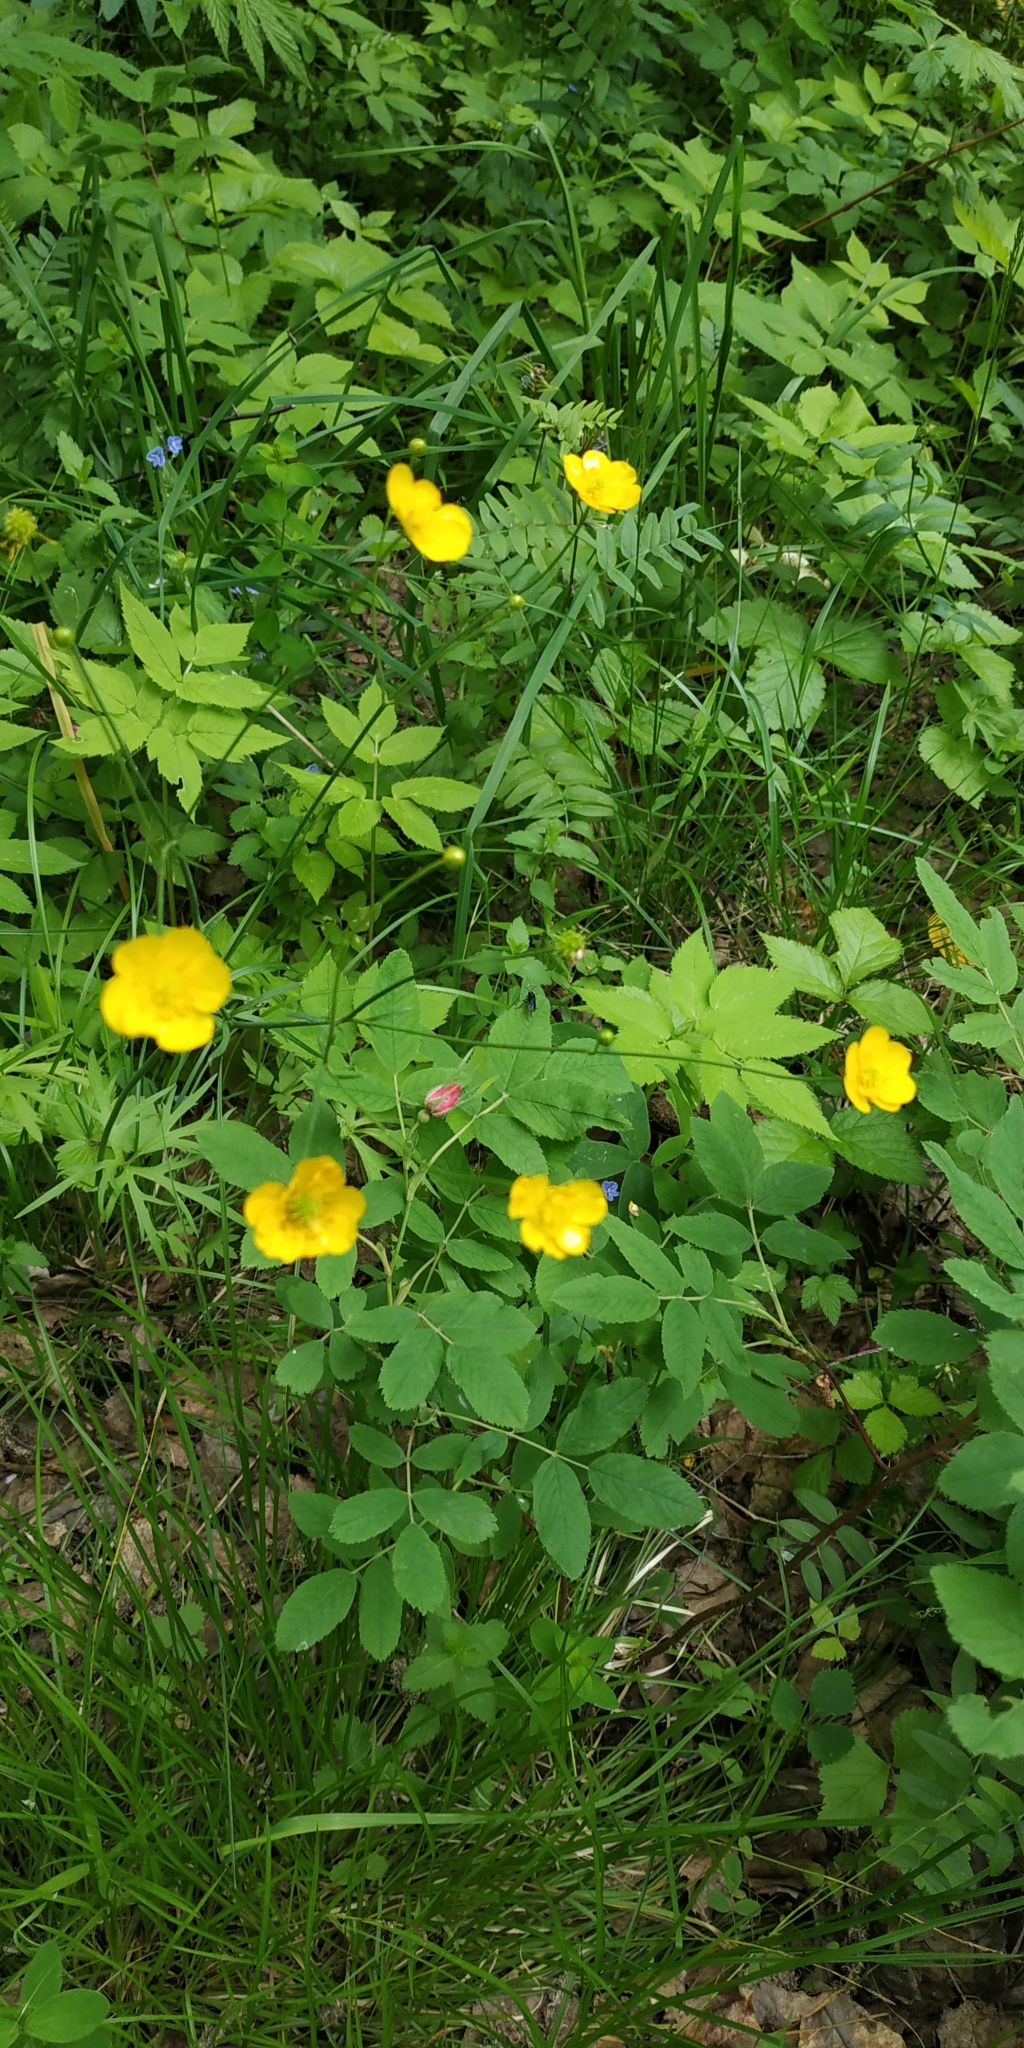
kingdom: Plantae
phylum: Tracheophyta
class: Magnoliopsida
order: Ranunculales
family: Ranunculaceae
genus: Ranunculus
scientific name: Ranunculus acris
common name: Meadow buttercup
